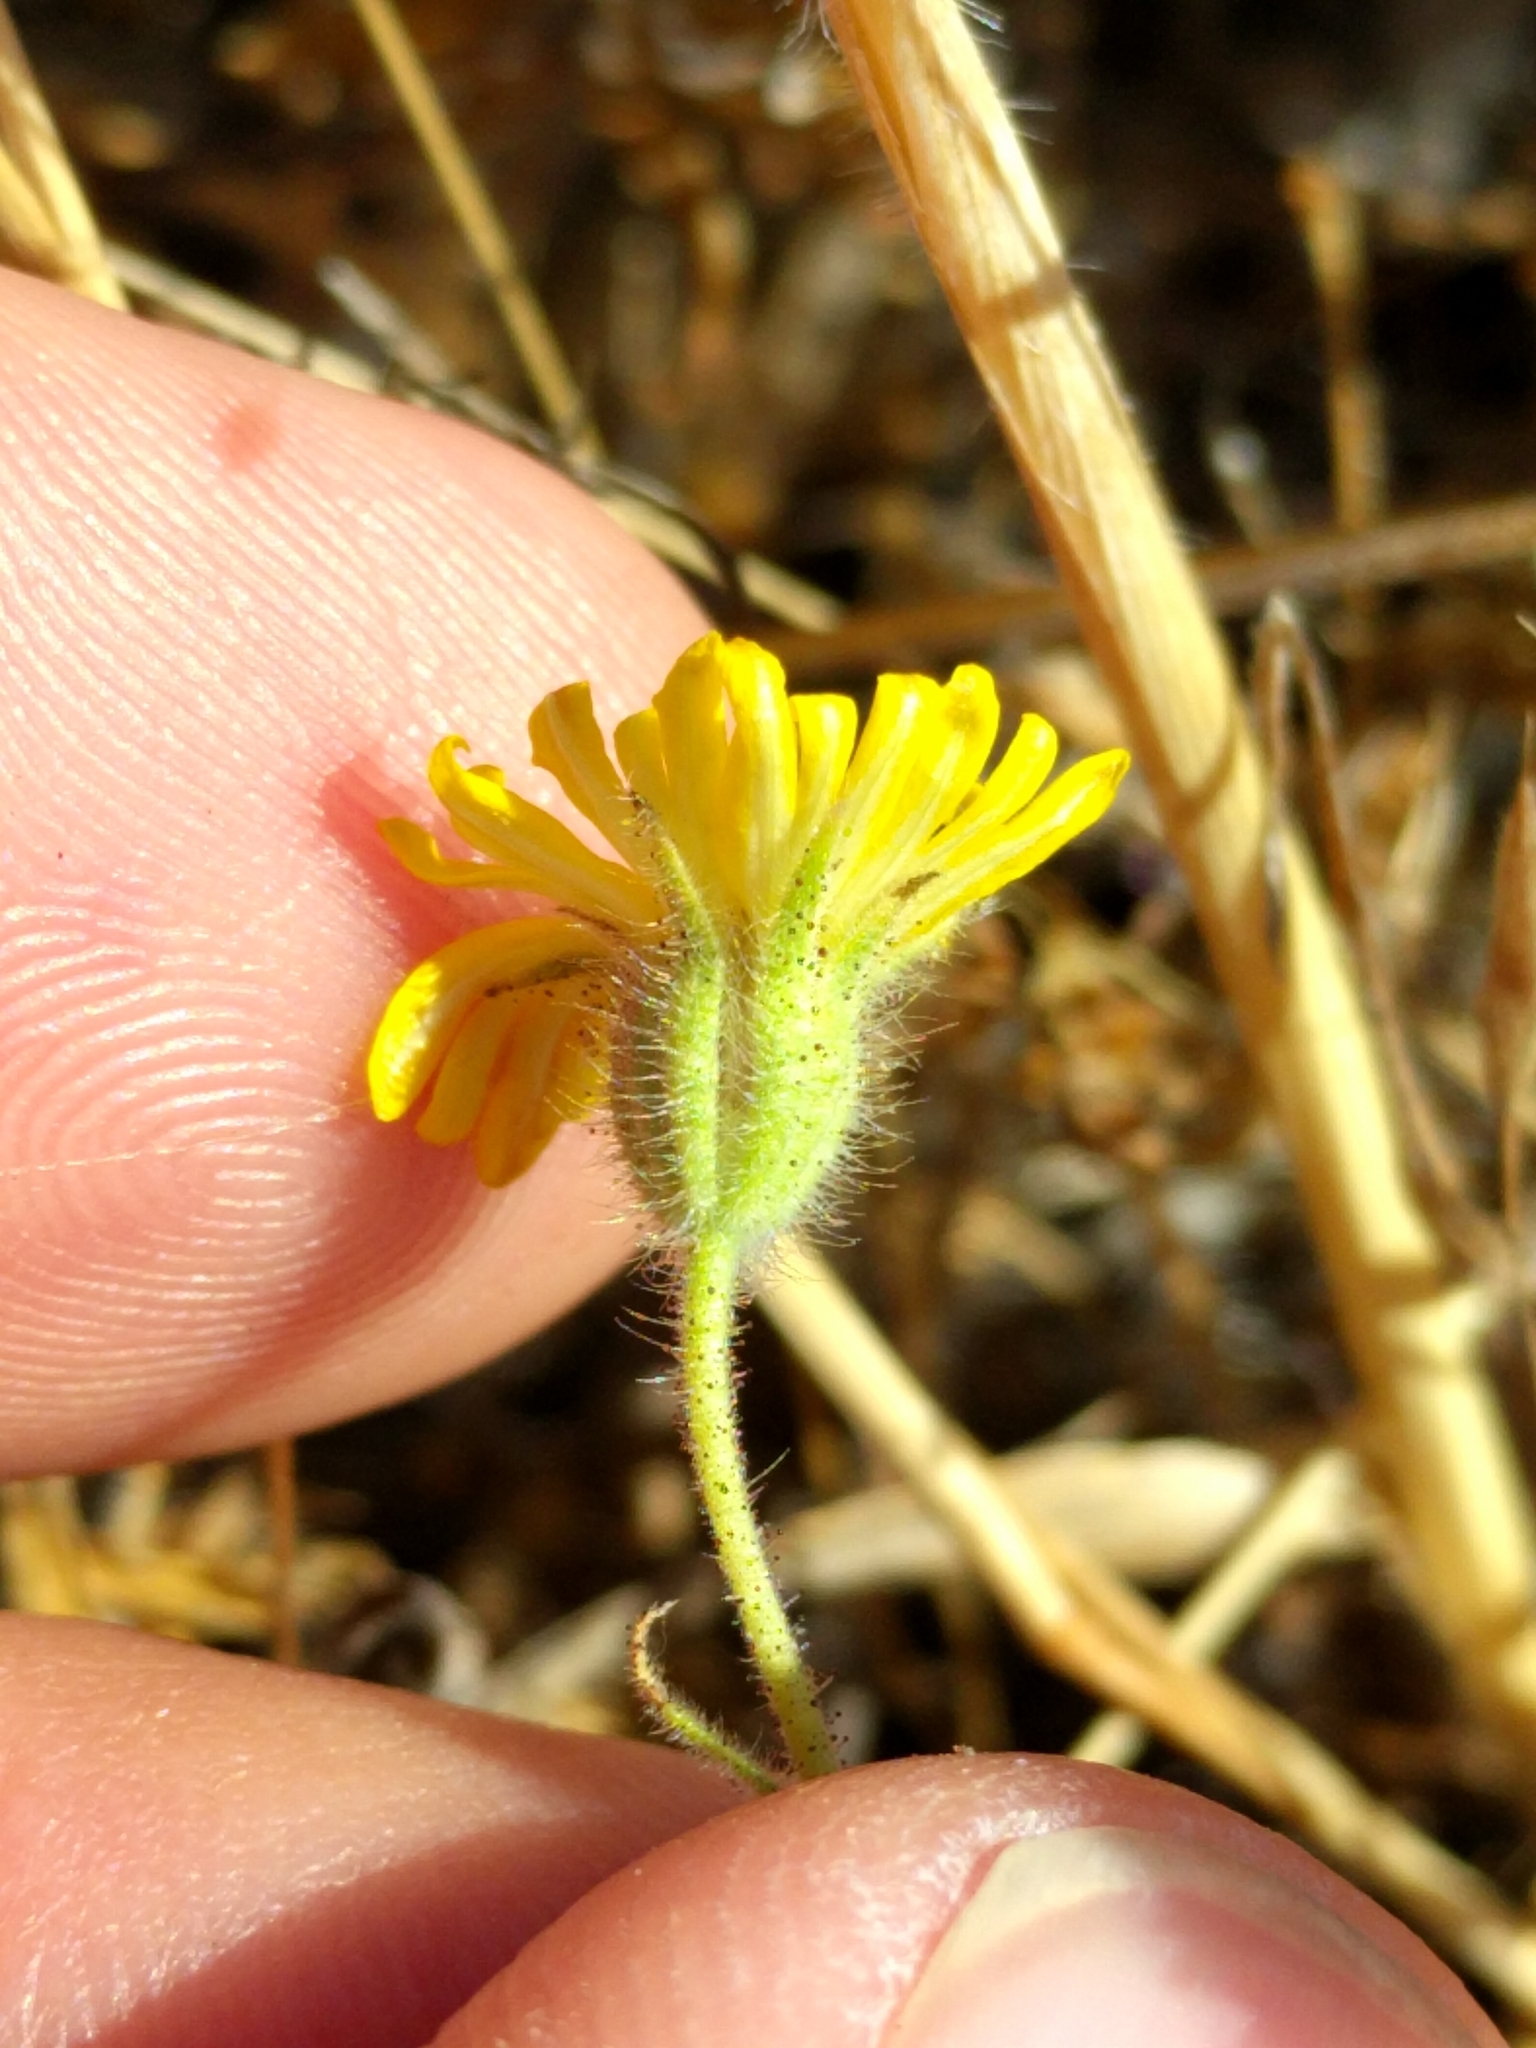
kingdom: Plantae
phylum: Tracheophyta
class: Magnoliopsida
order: Asterales
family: Asteraceae
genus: Madia
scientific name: Madia elegans
